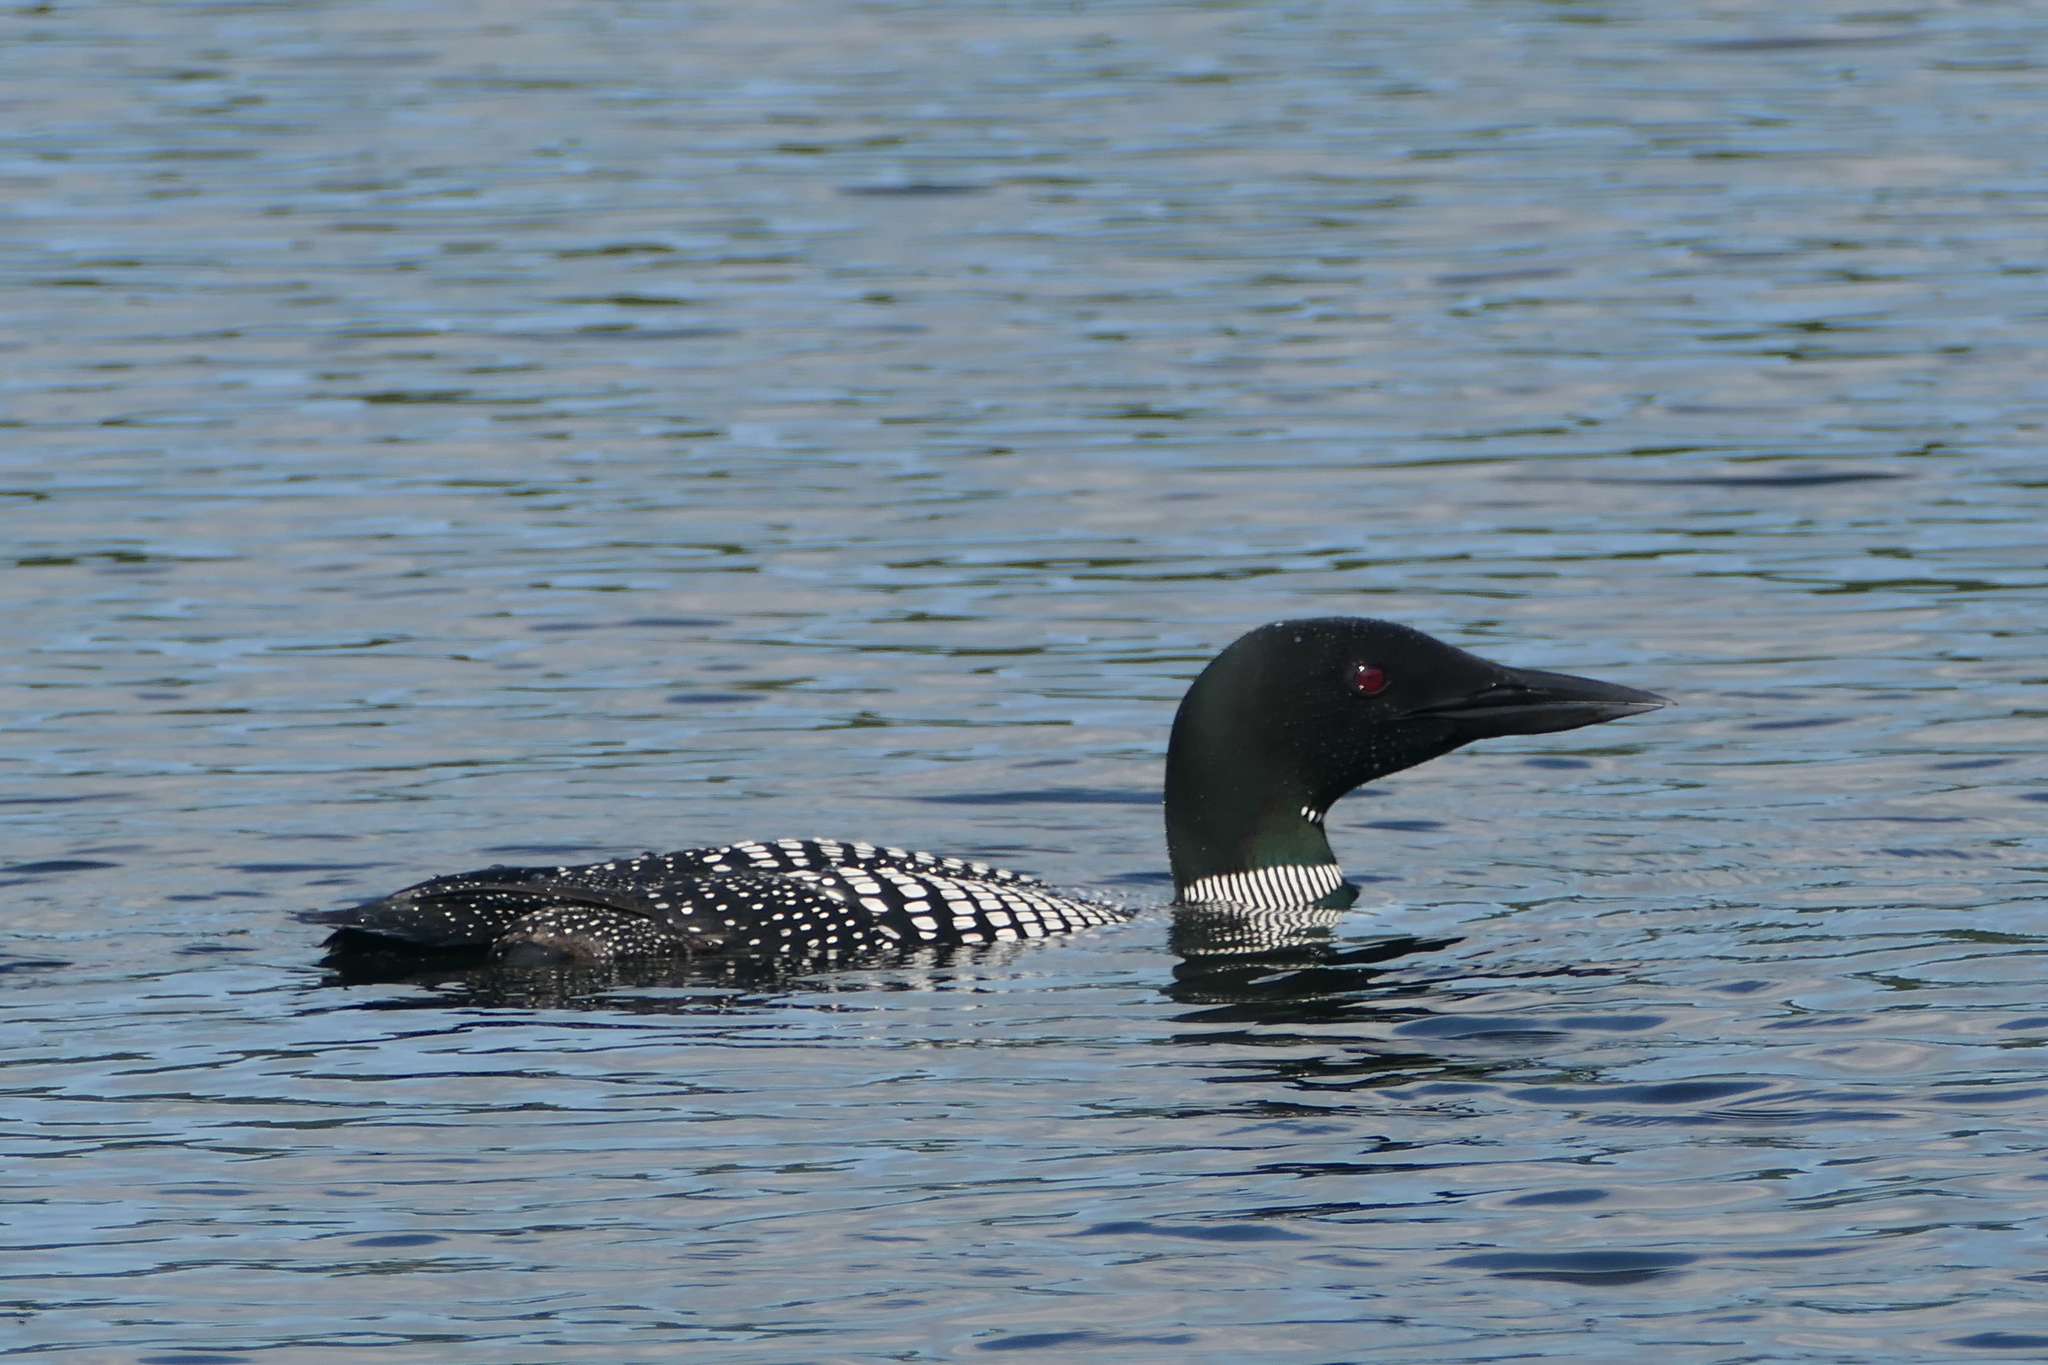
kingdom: Animalia
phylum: Chordata
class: Aves
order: Gaviiformes
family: Gaviidae
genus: Gavia
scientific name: Gavia immer
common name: Common loon
